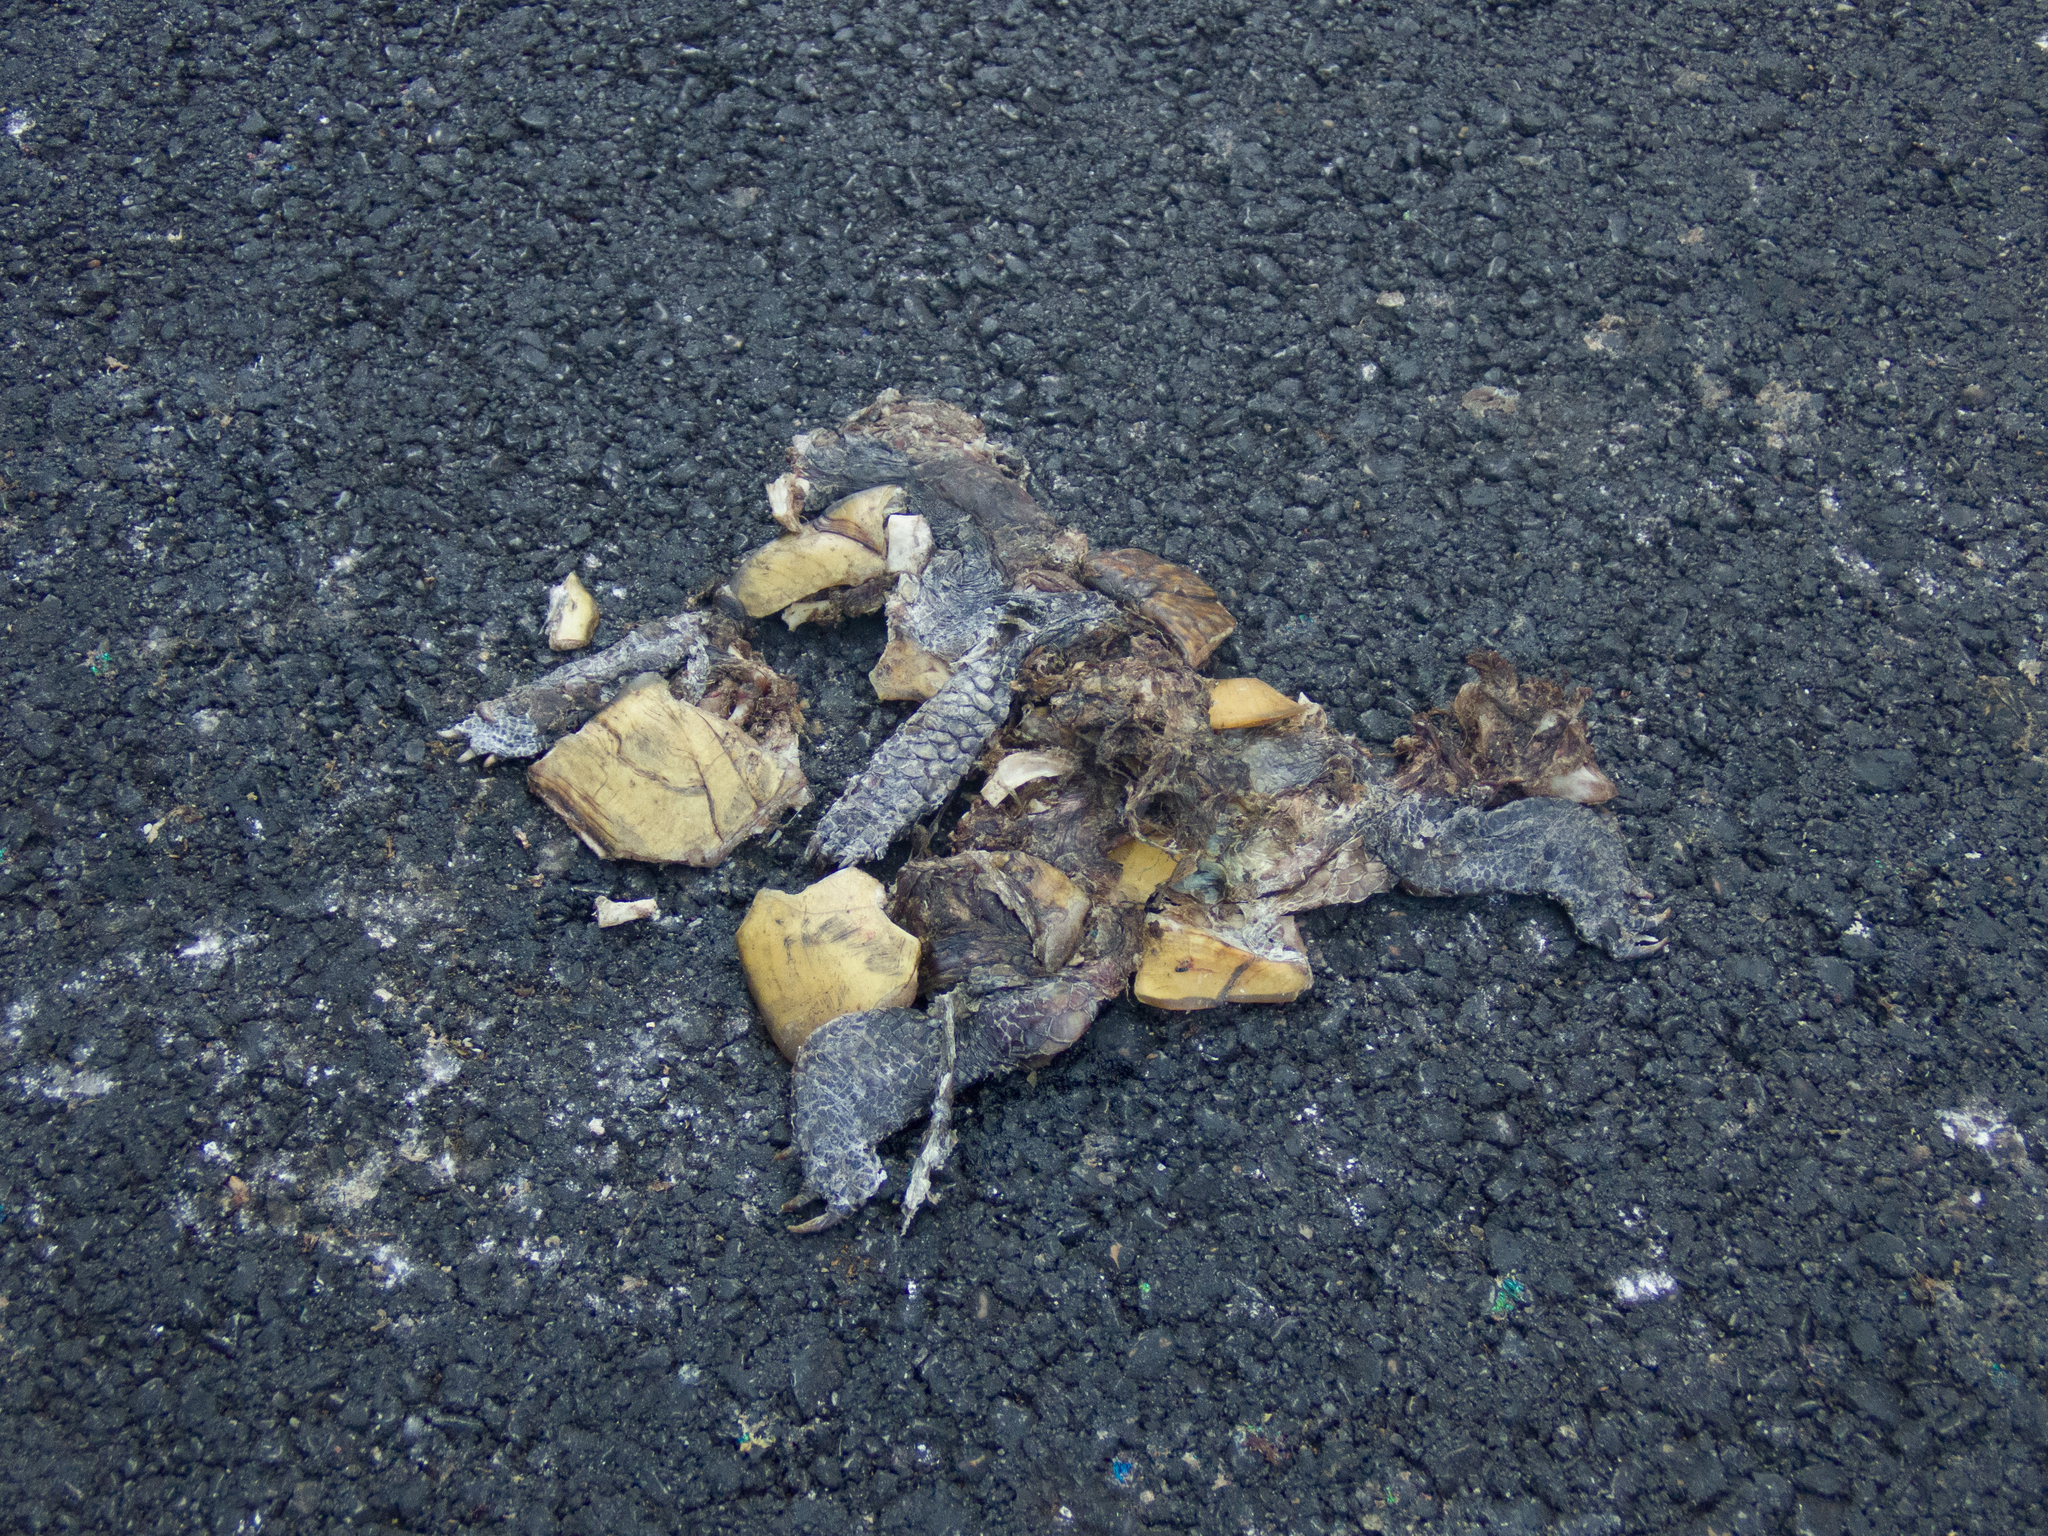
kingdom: Animalia
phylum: Chordata
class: Testudines
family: Emydidae
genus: Terrapene
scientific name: Terrapene carolina
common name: Common box turtle
